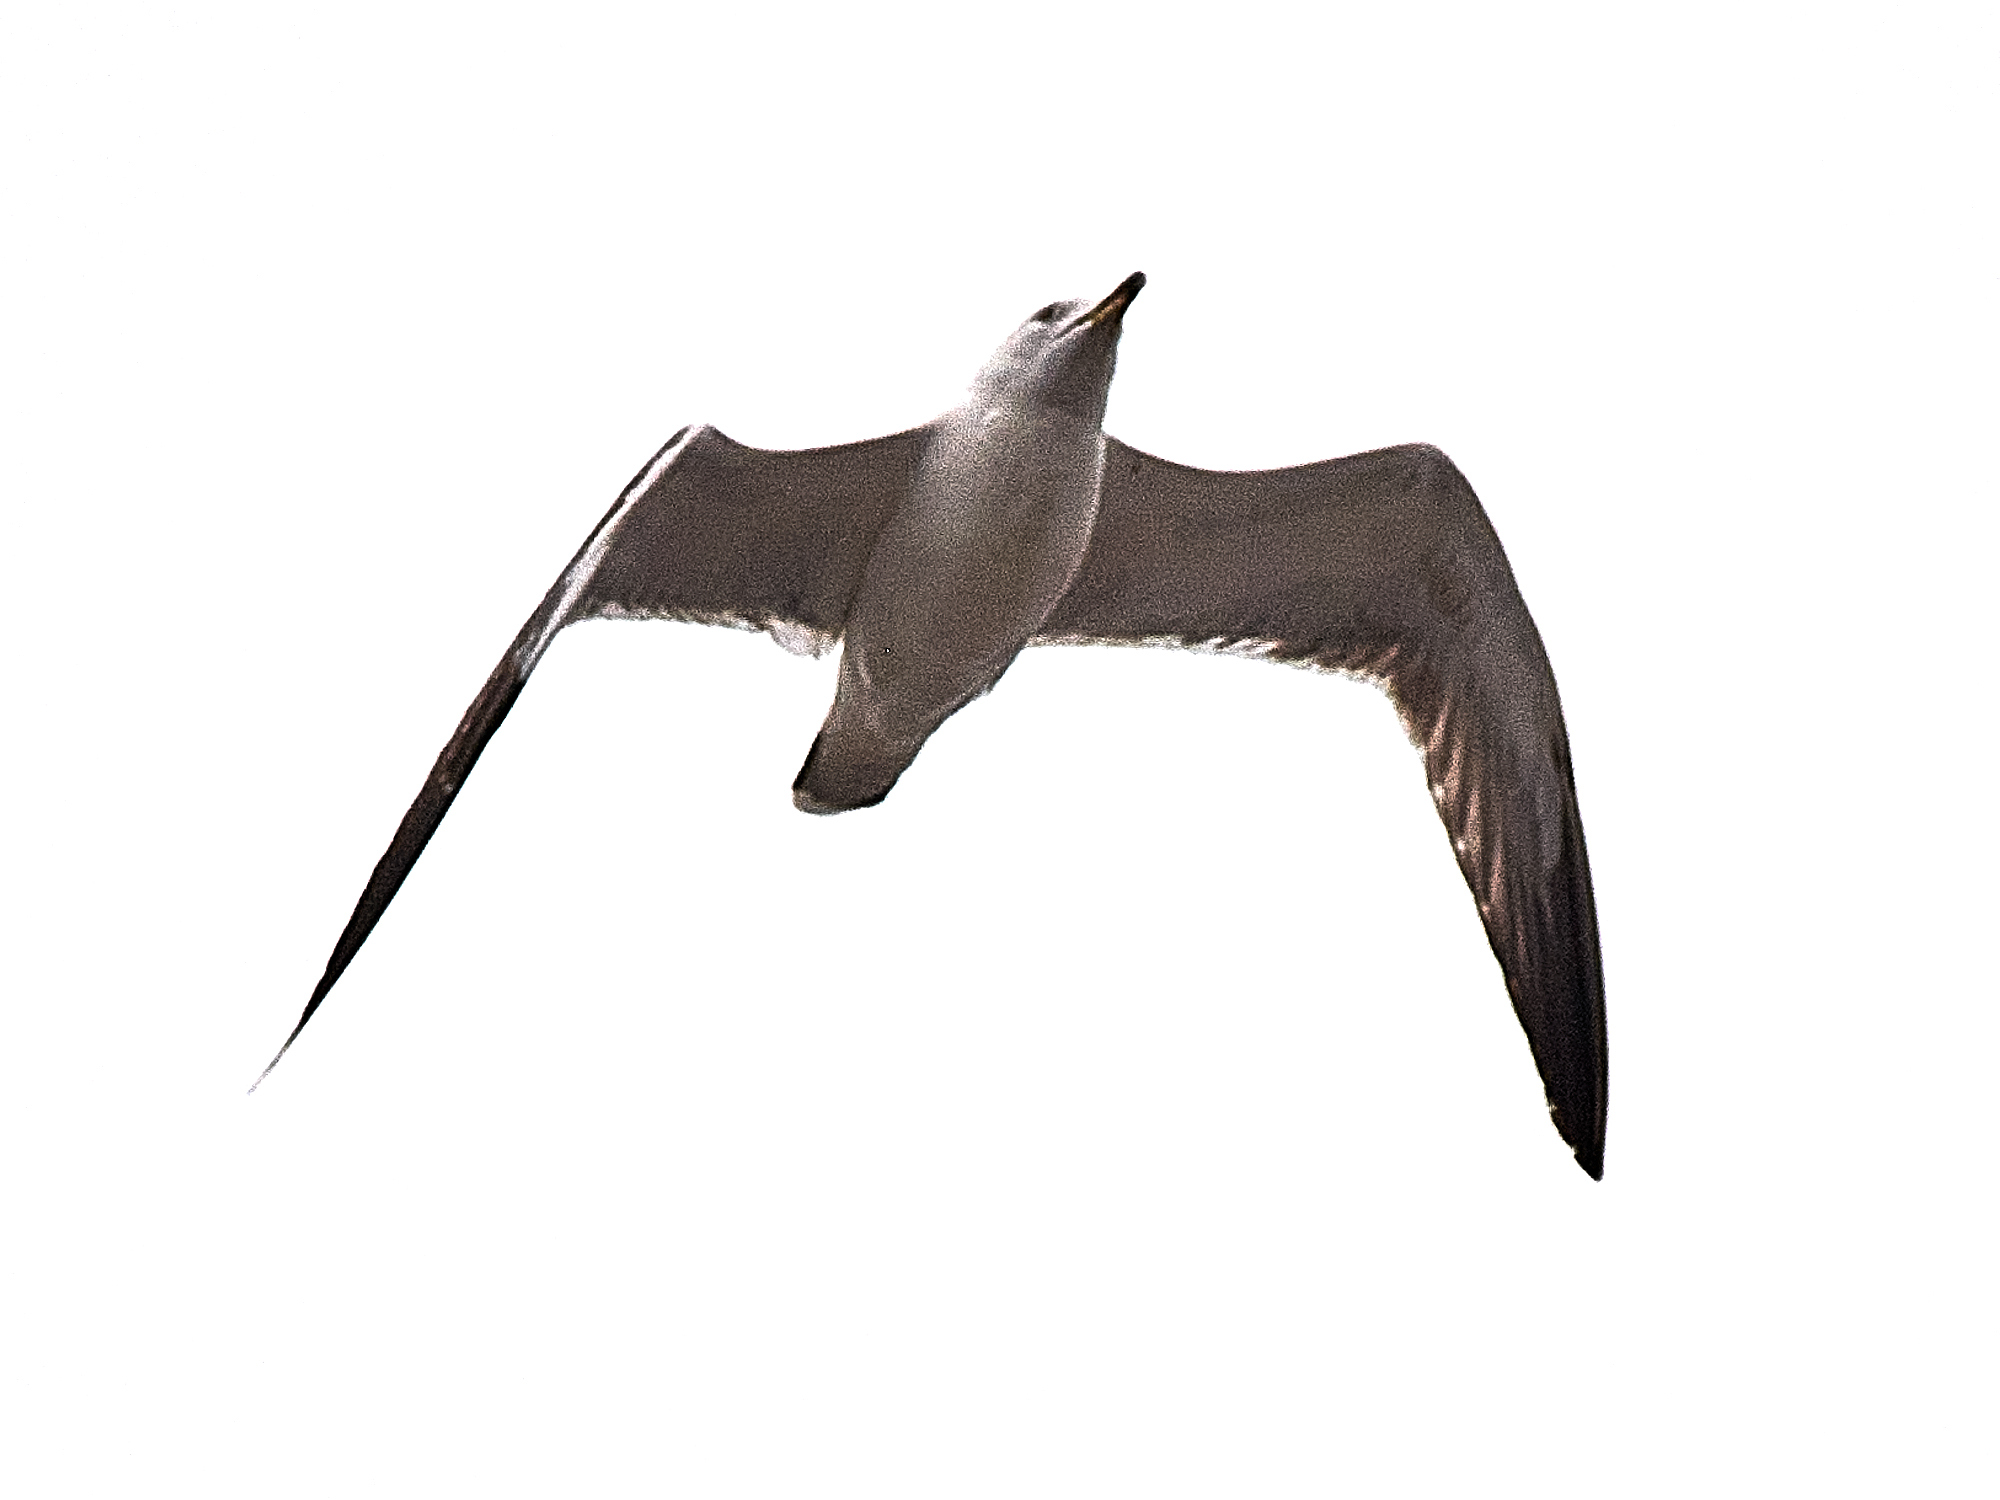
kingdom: Animalia
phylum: Chordata
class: Aves
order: Charadriiformes
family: Laridae
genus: Larus
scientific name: Larus fuscus
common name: Lesser black-backed gull
